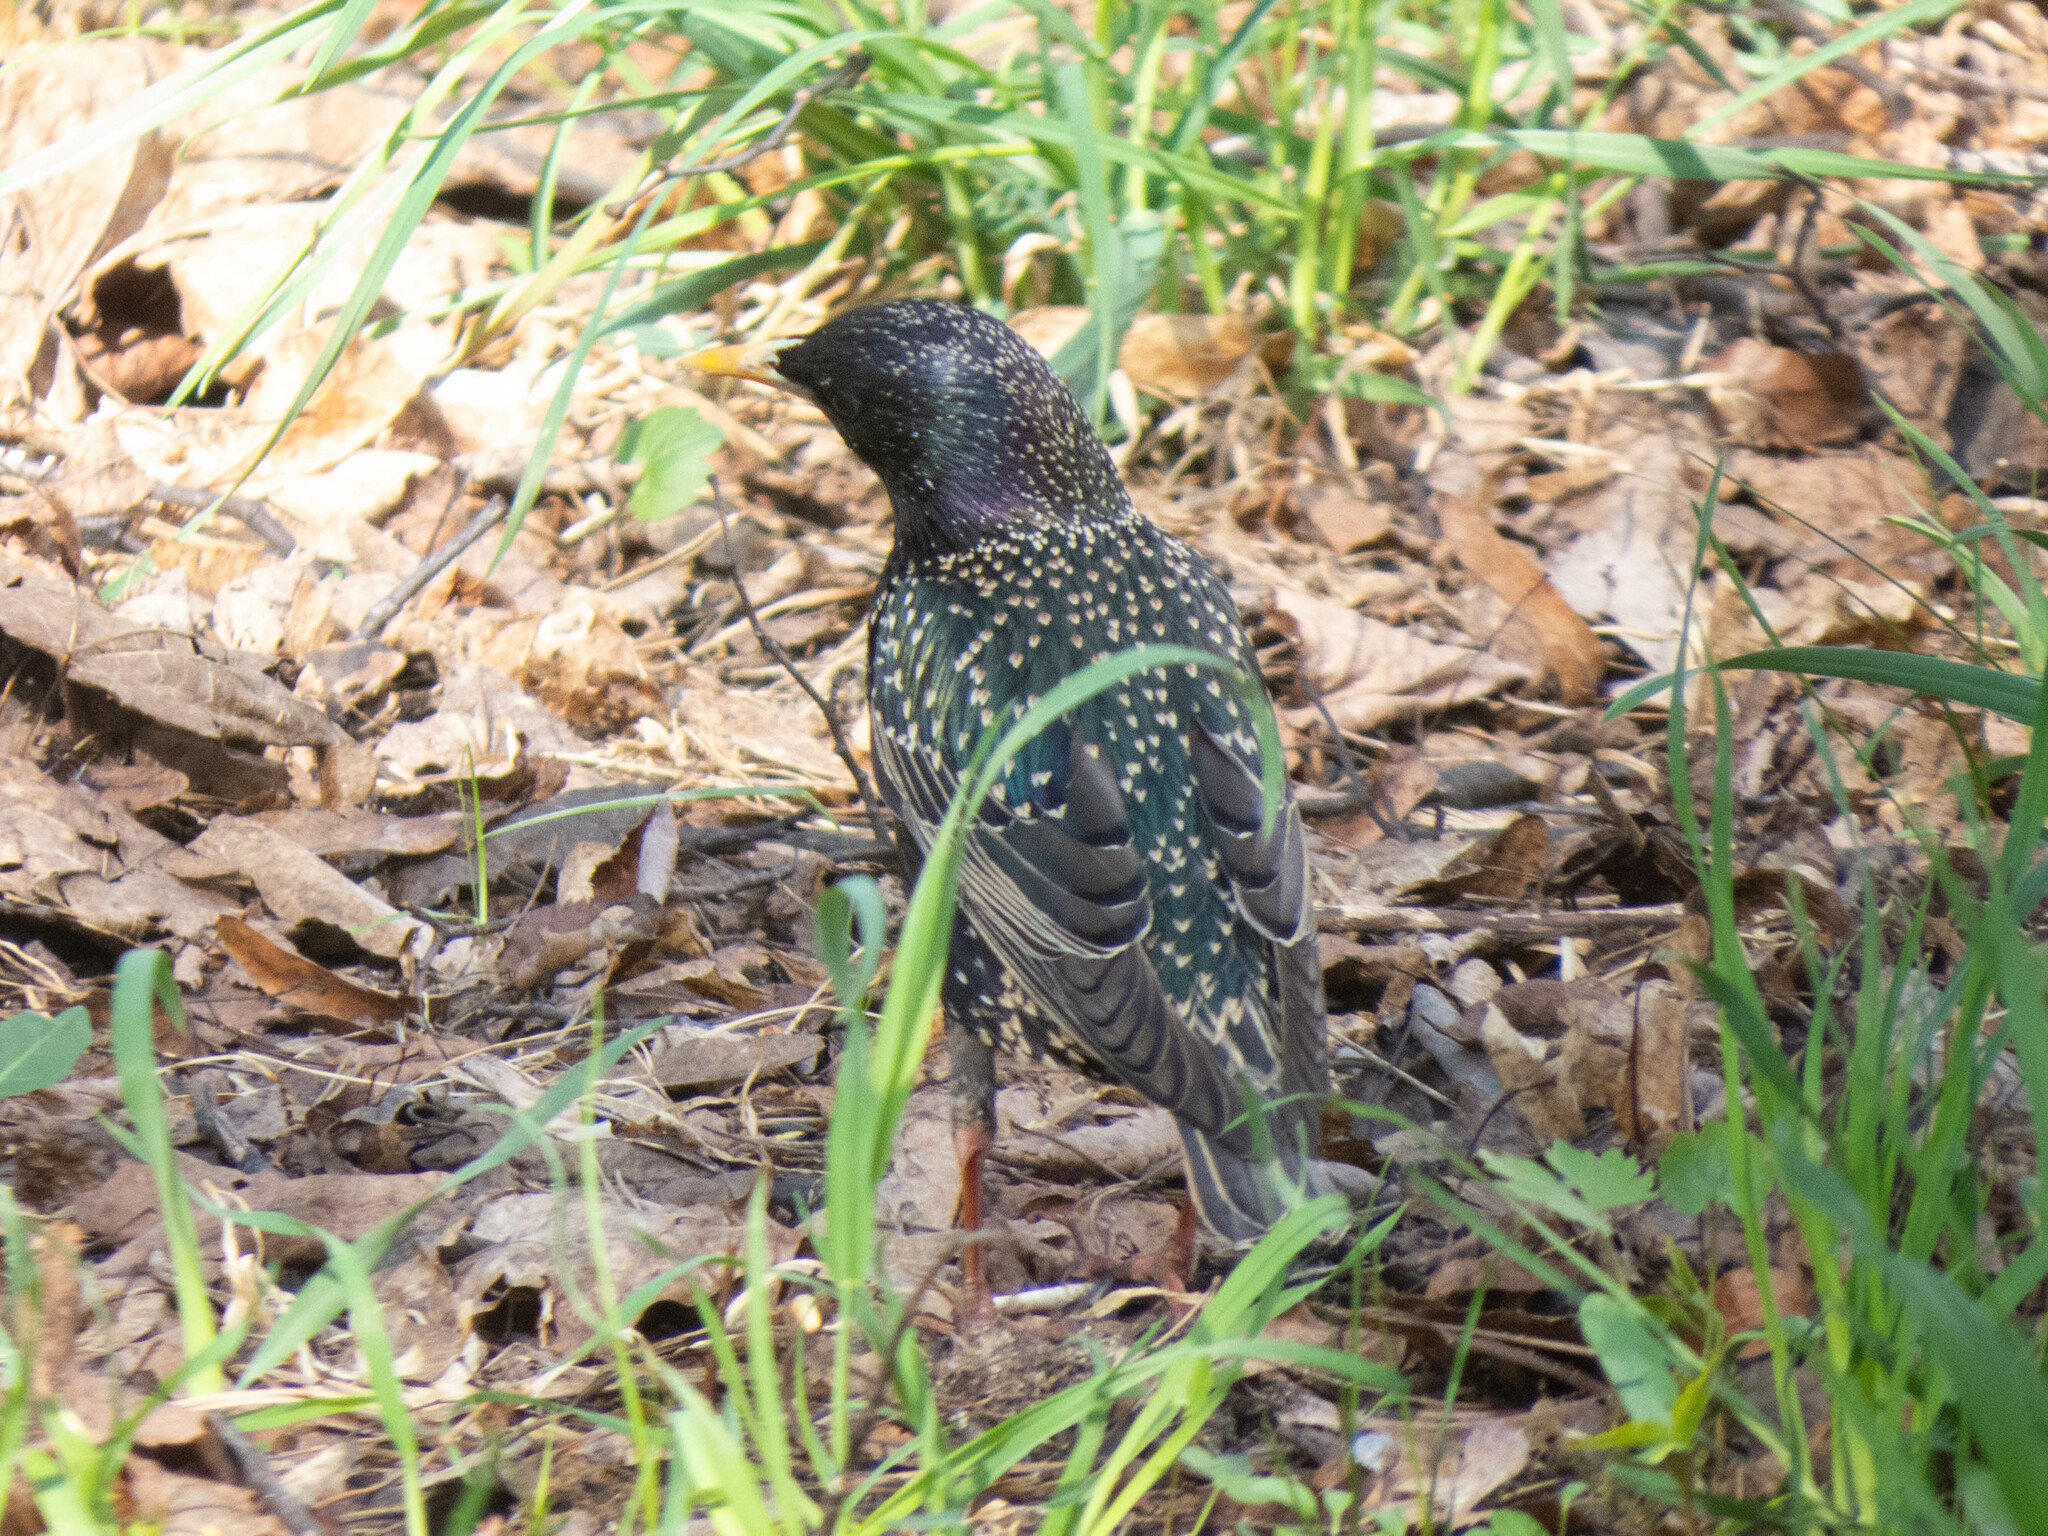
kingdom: Animalia
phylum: Chordata
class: Aves
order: Passeriformes
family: Sturnidae
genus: Sturnus
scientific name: Sturnus vulgaris
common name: Common starling
